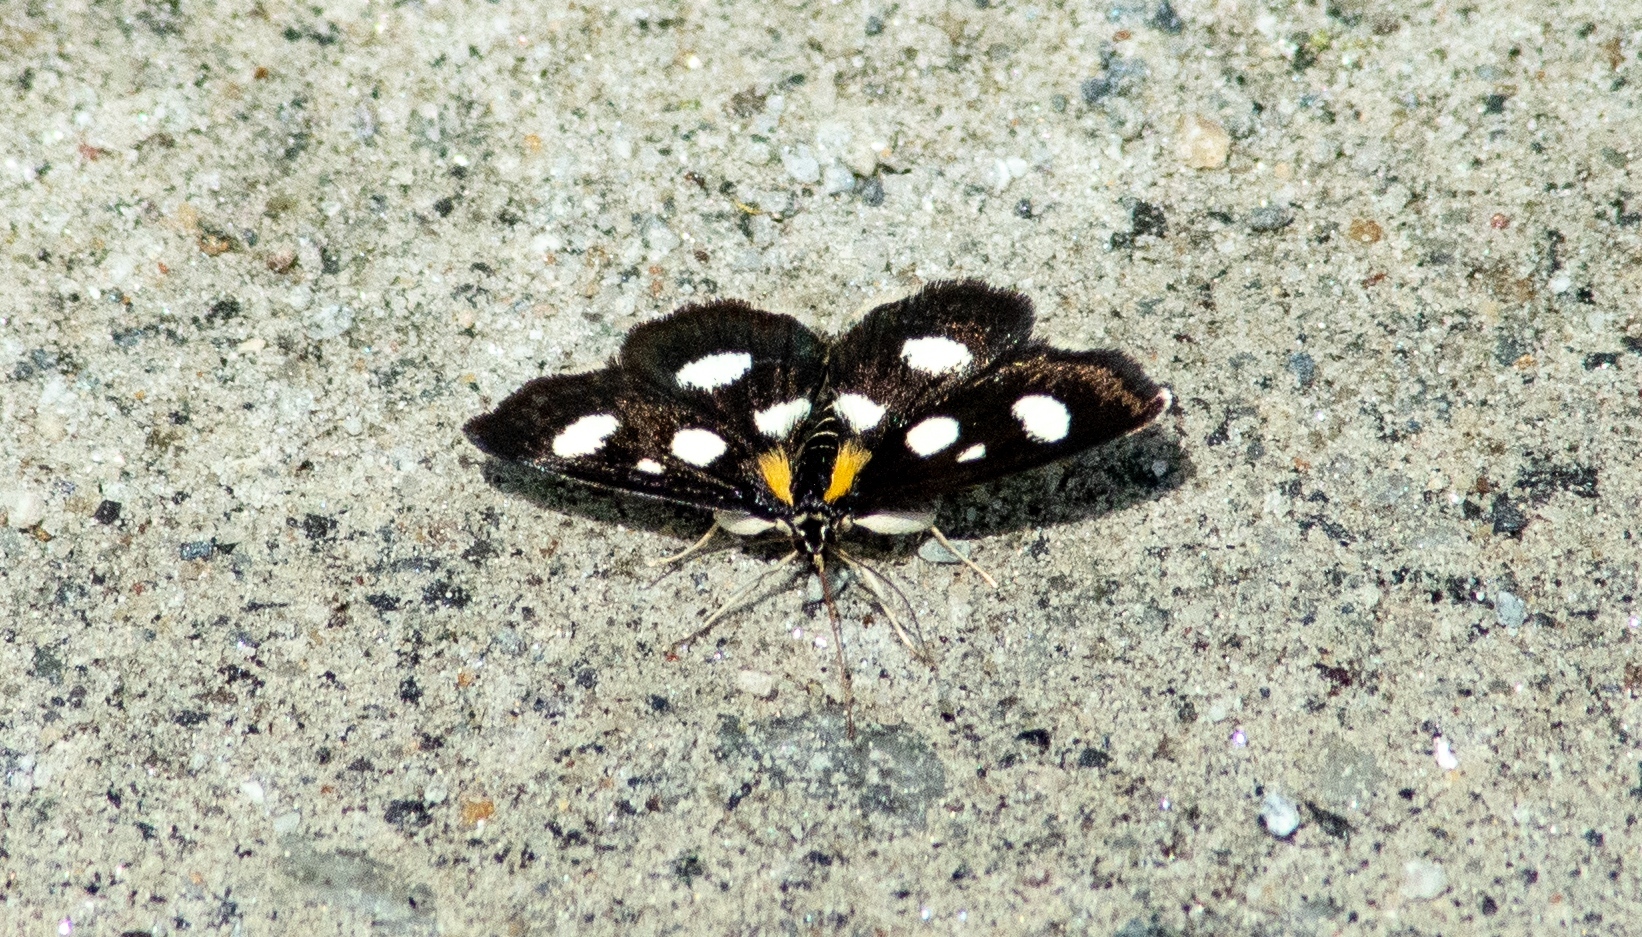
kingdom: Animalia
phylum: Arthropoda
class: Insecta
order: Lepidoptera
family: Crambidae
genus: Anania
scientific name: Anania funebris
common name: White-spotted sable moth
